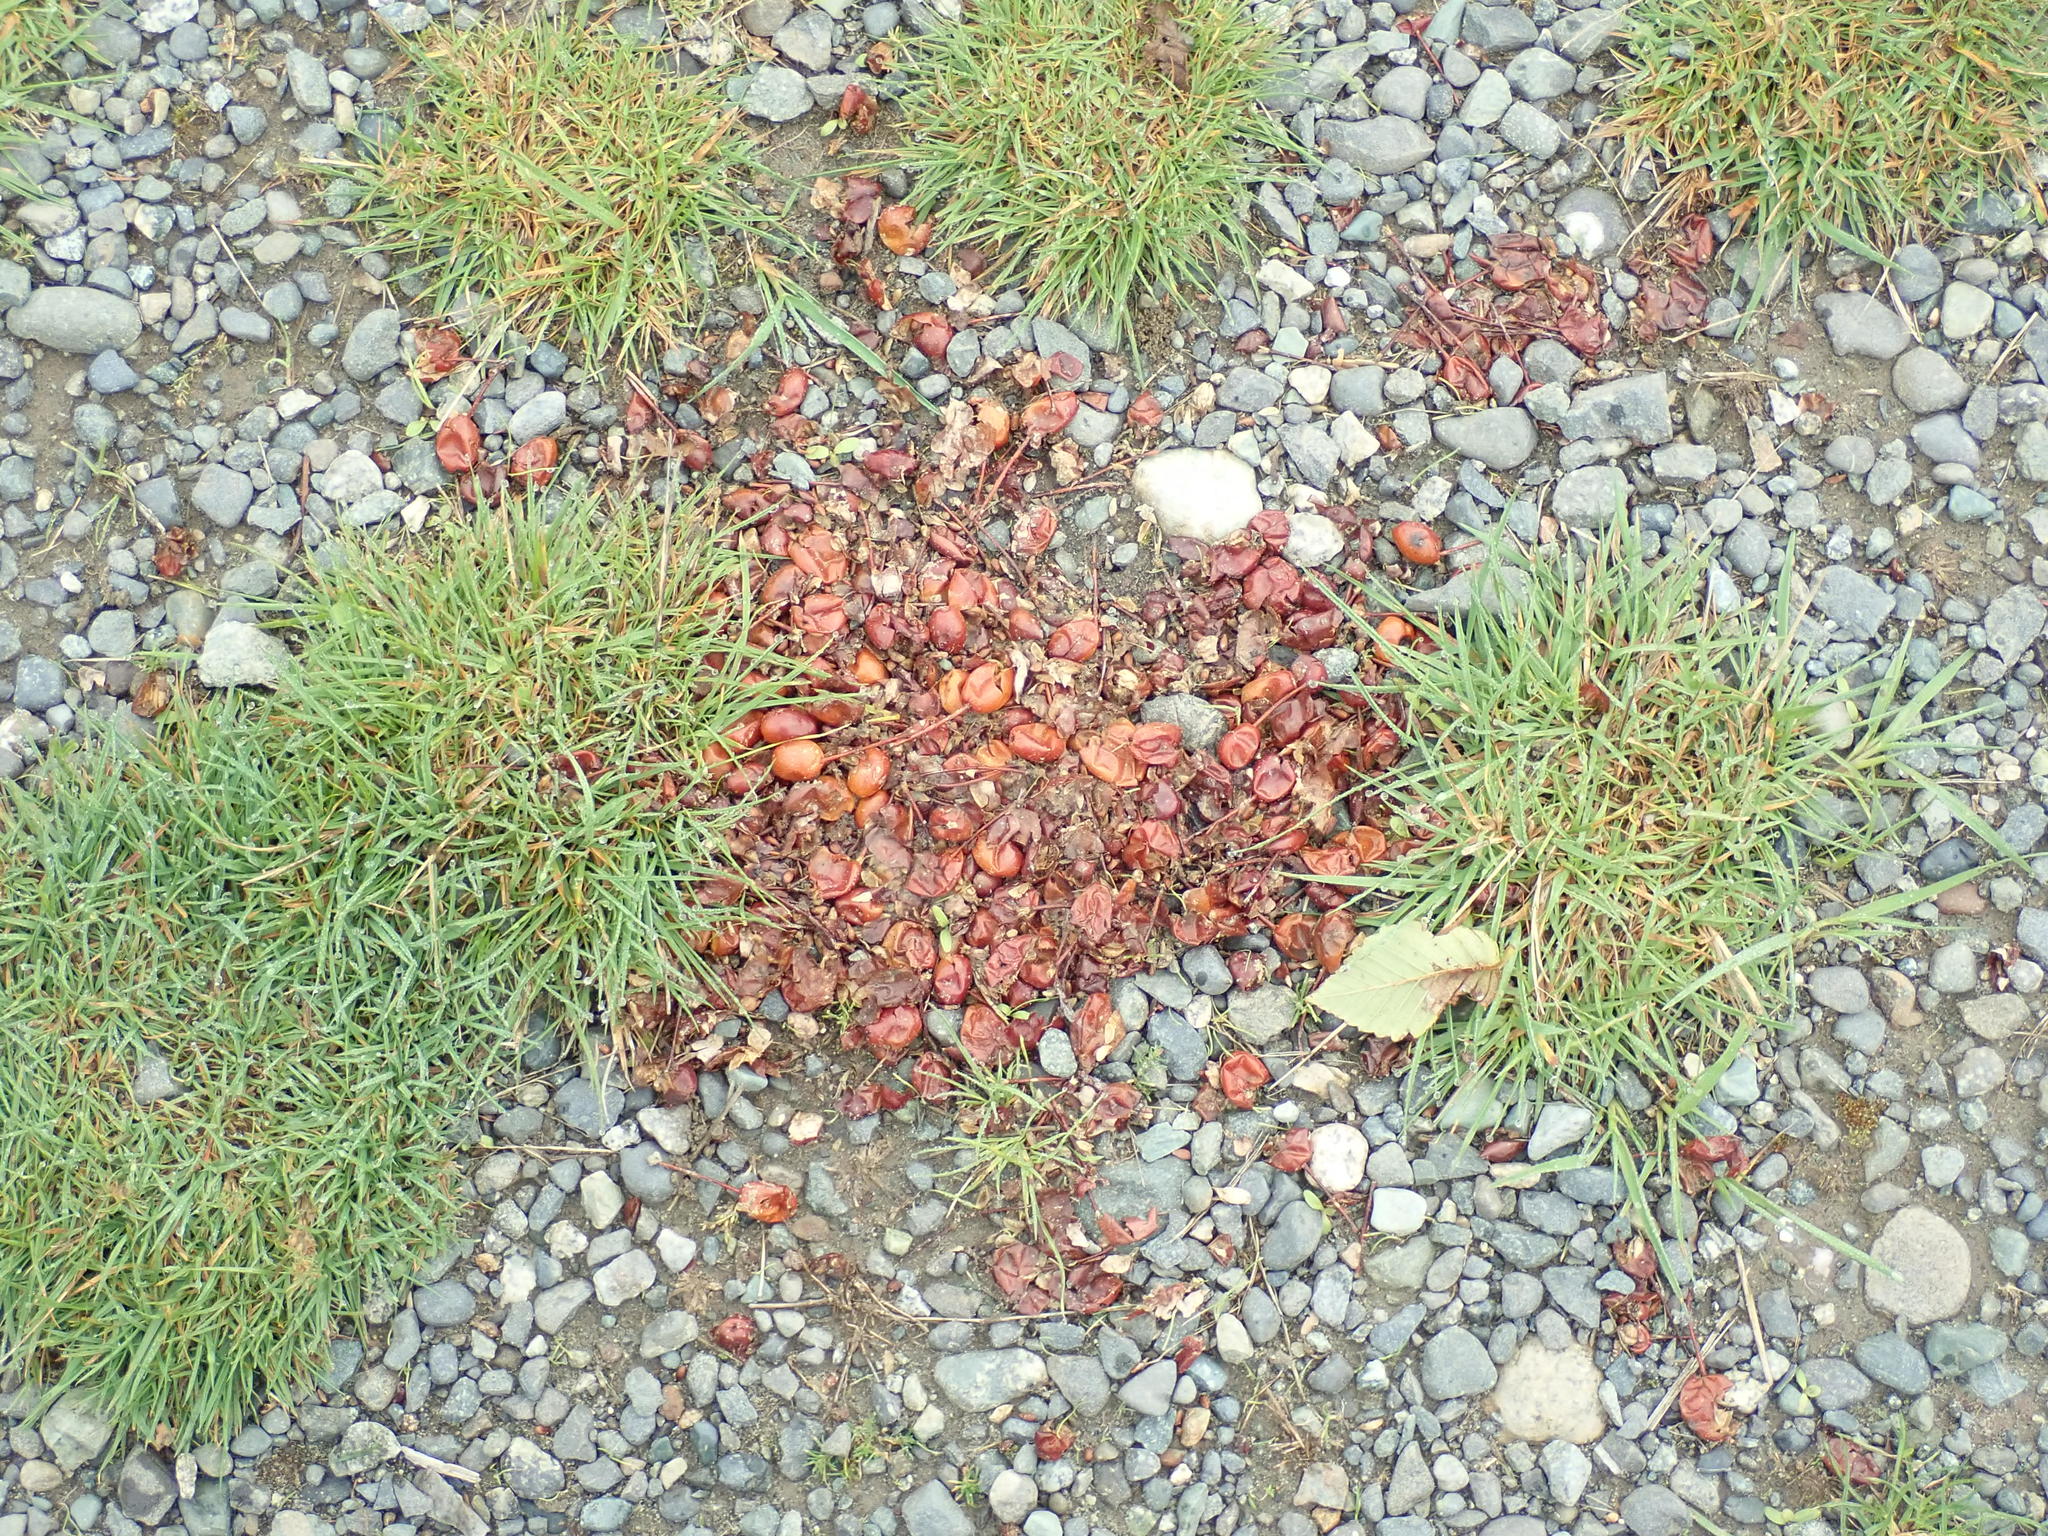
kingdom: Animalia
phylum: Chordata
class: Mammalia
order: Carnivora
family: Ursidae
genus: Ursus
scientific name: Ursus americanus
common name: American black bear
